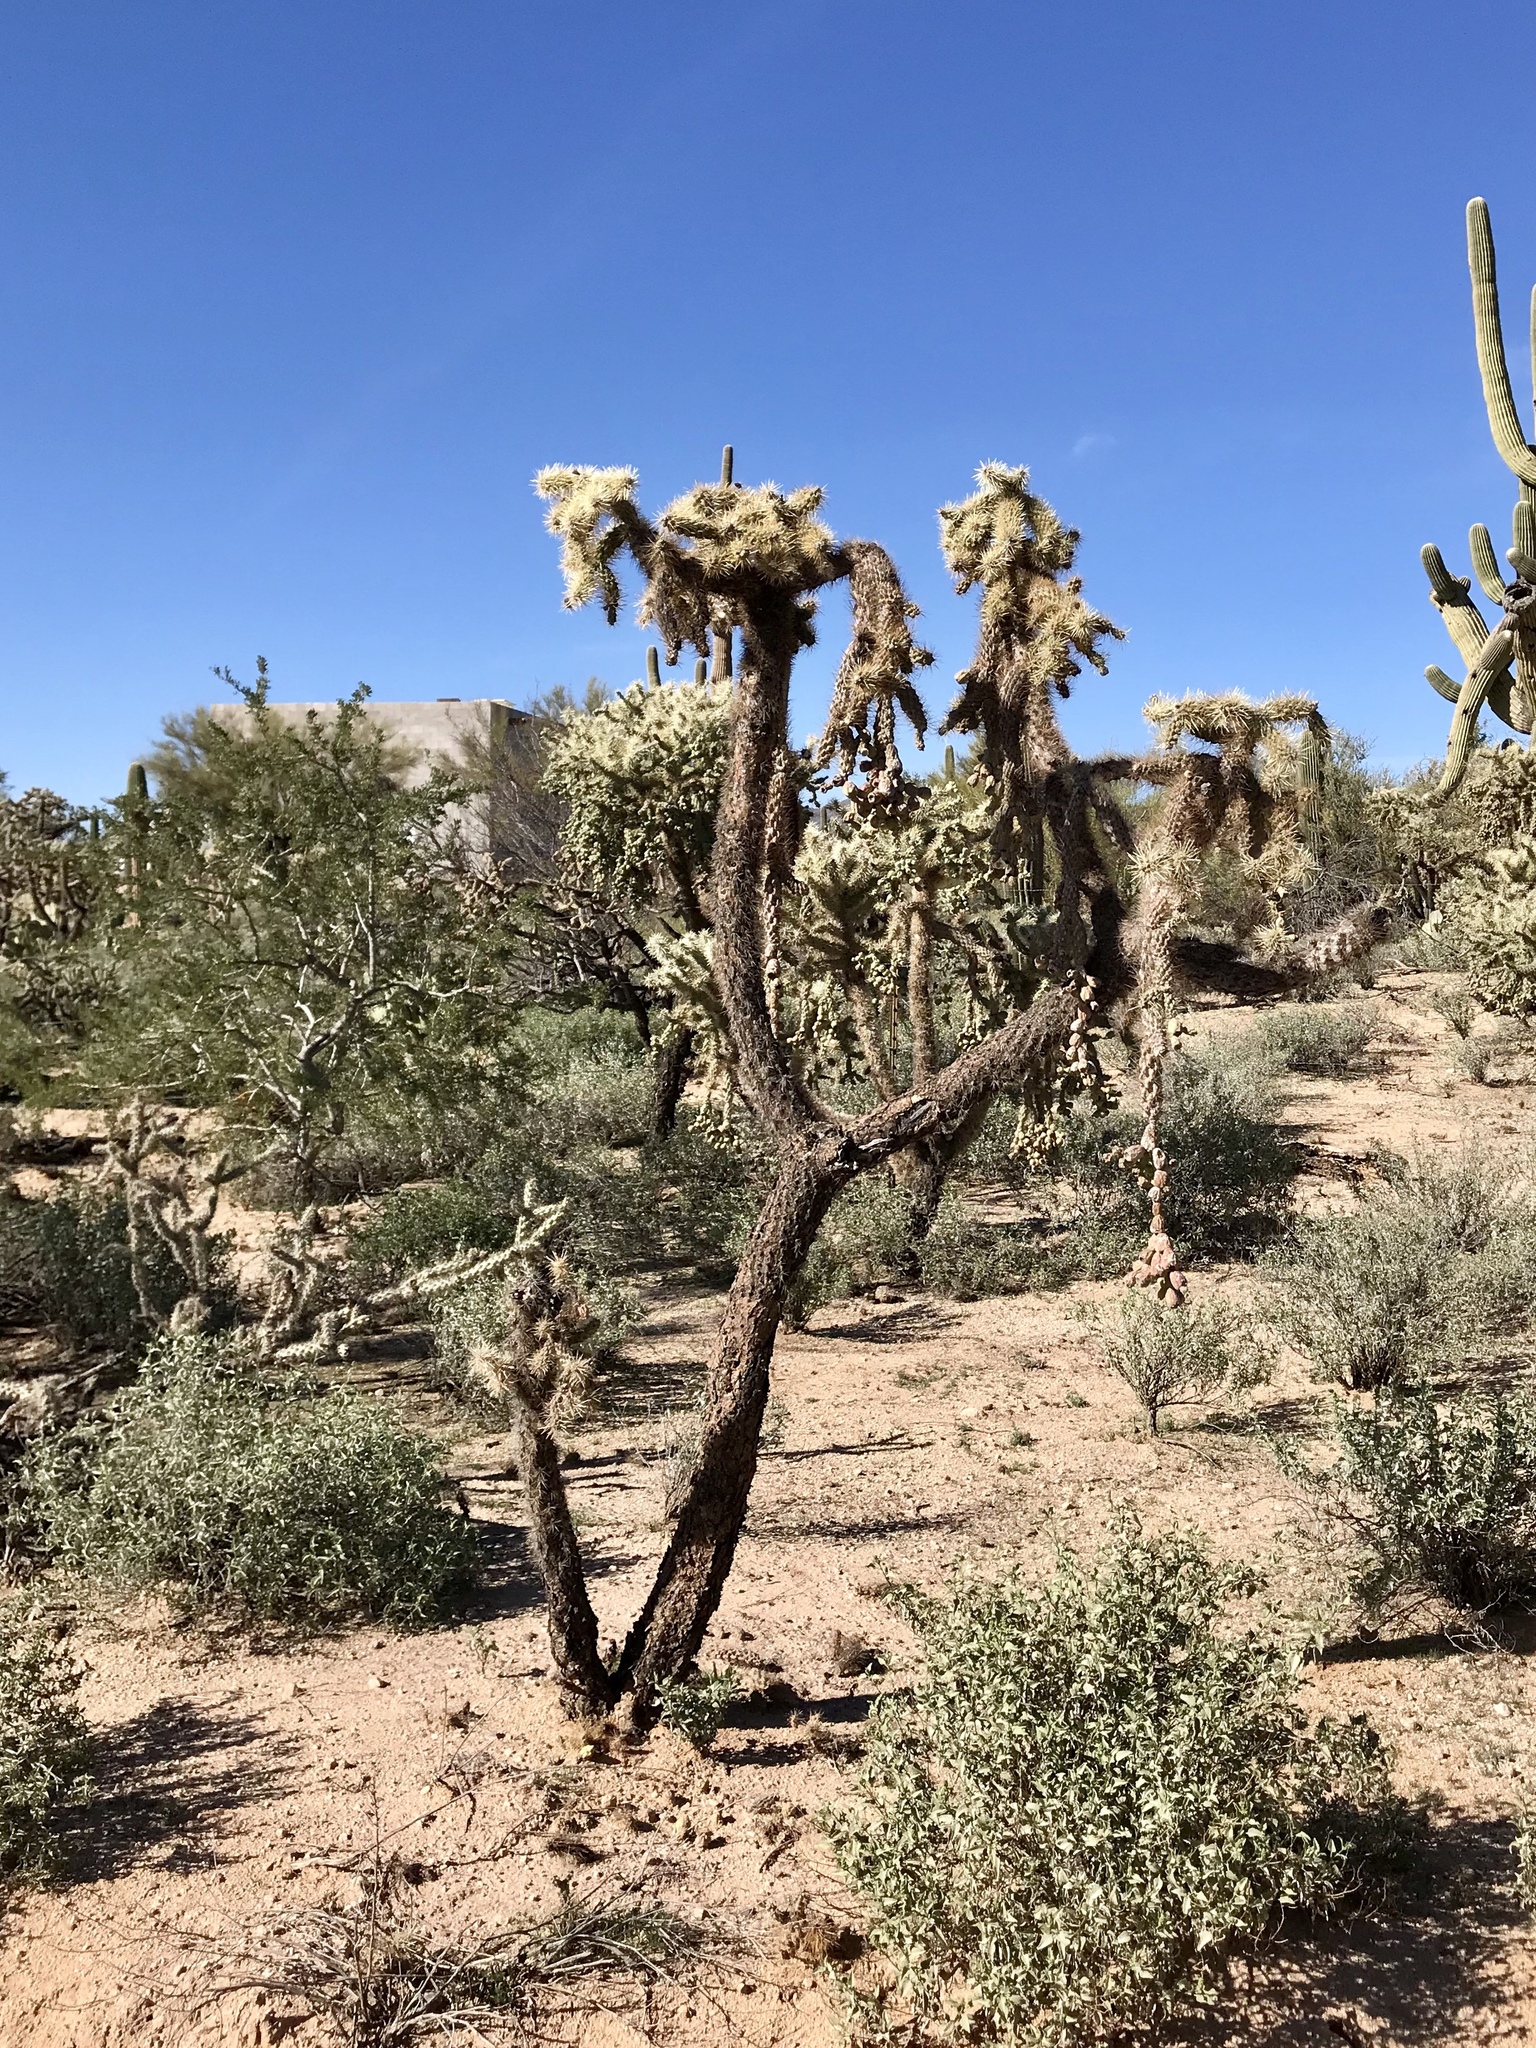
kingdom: Plantae
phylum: Tracheophyta
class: Magnoliopsida
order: Caryophyllales
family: Cactaceae
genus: Cylindropuntia
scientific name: Cylindropuntia fulgida
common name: Jumping cholla
